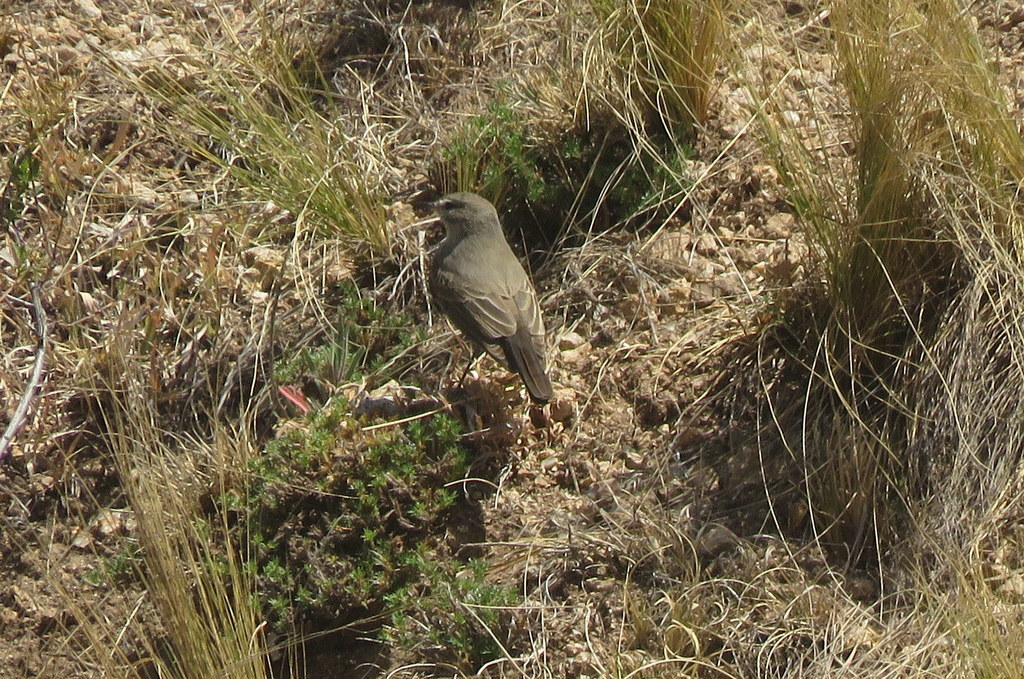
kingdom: Animalia
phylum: Chordata
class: Aves
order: Passeriformes
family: Tyrannidae
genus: Muscisaxicola
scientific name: Muscisaxicola maculirostris
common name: Spot-billed ground tyrant
